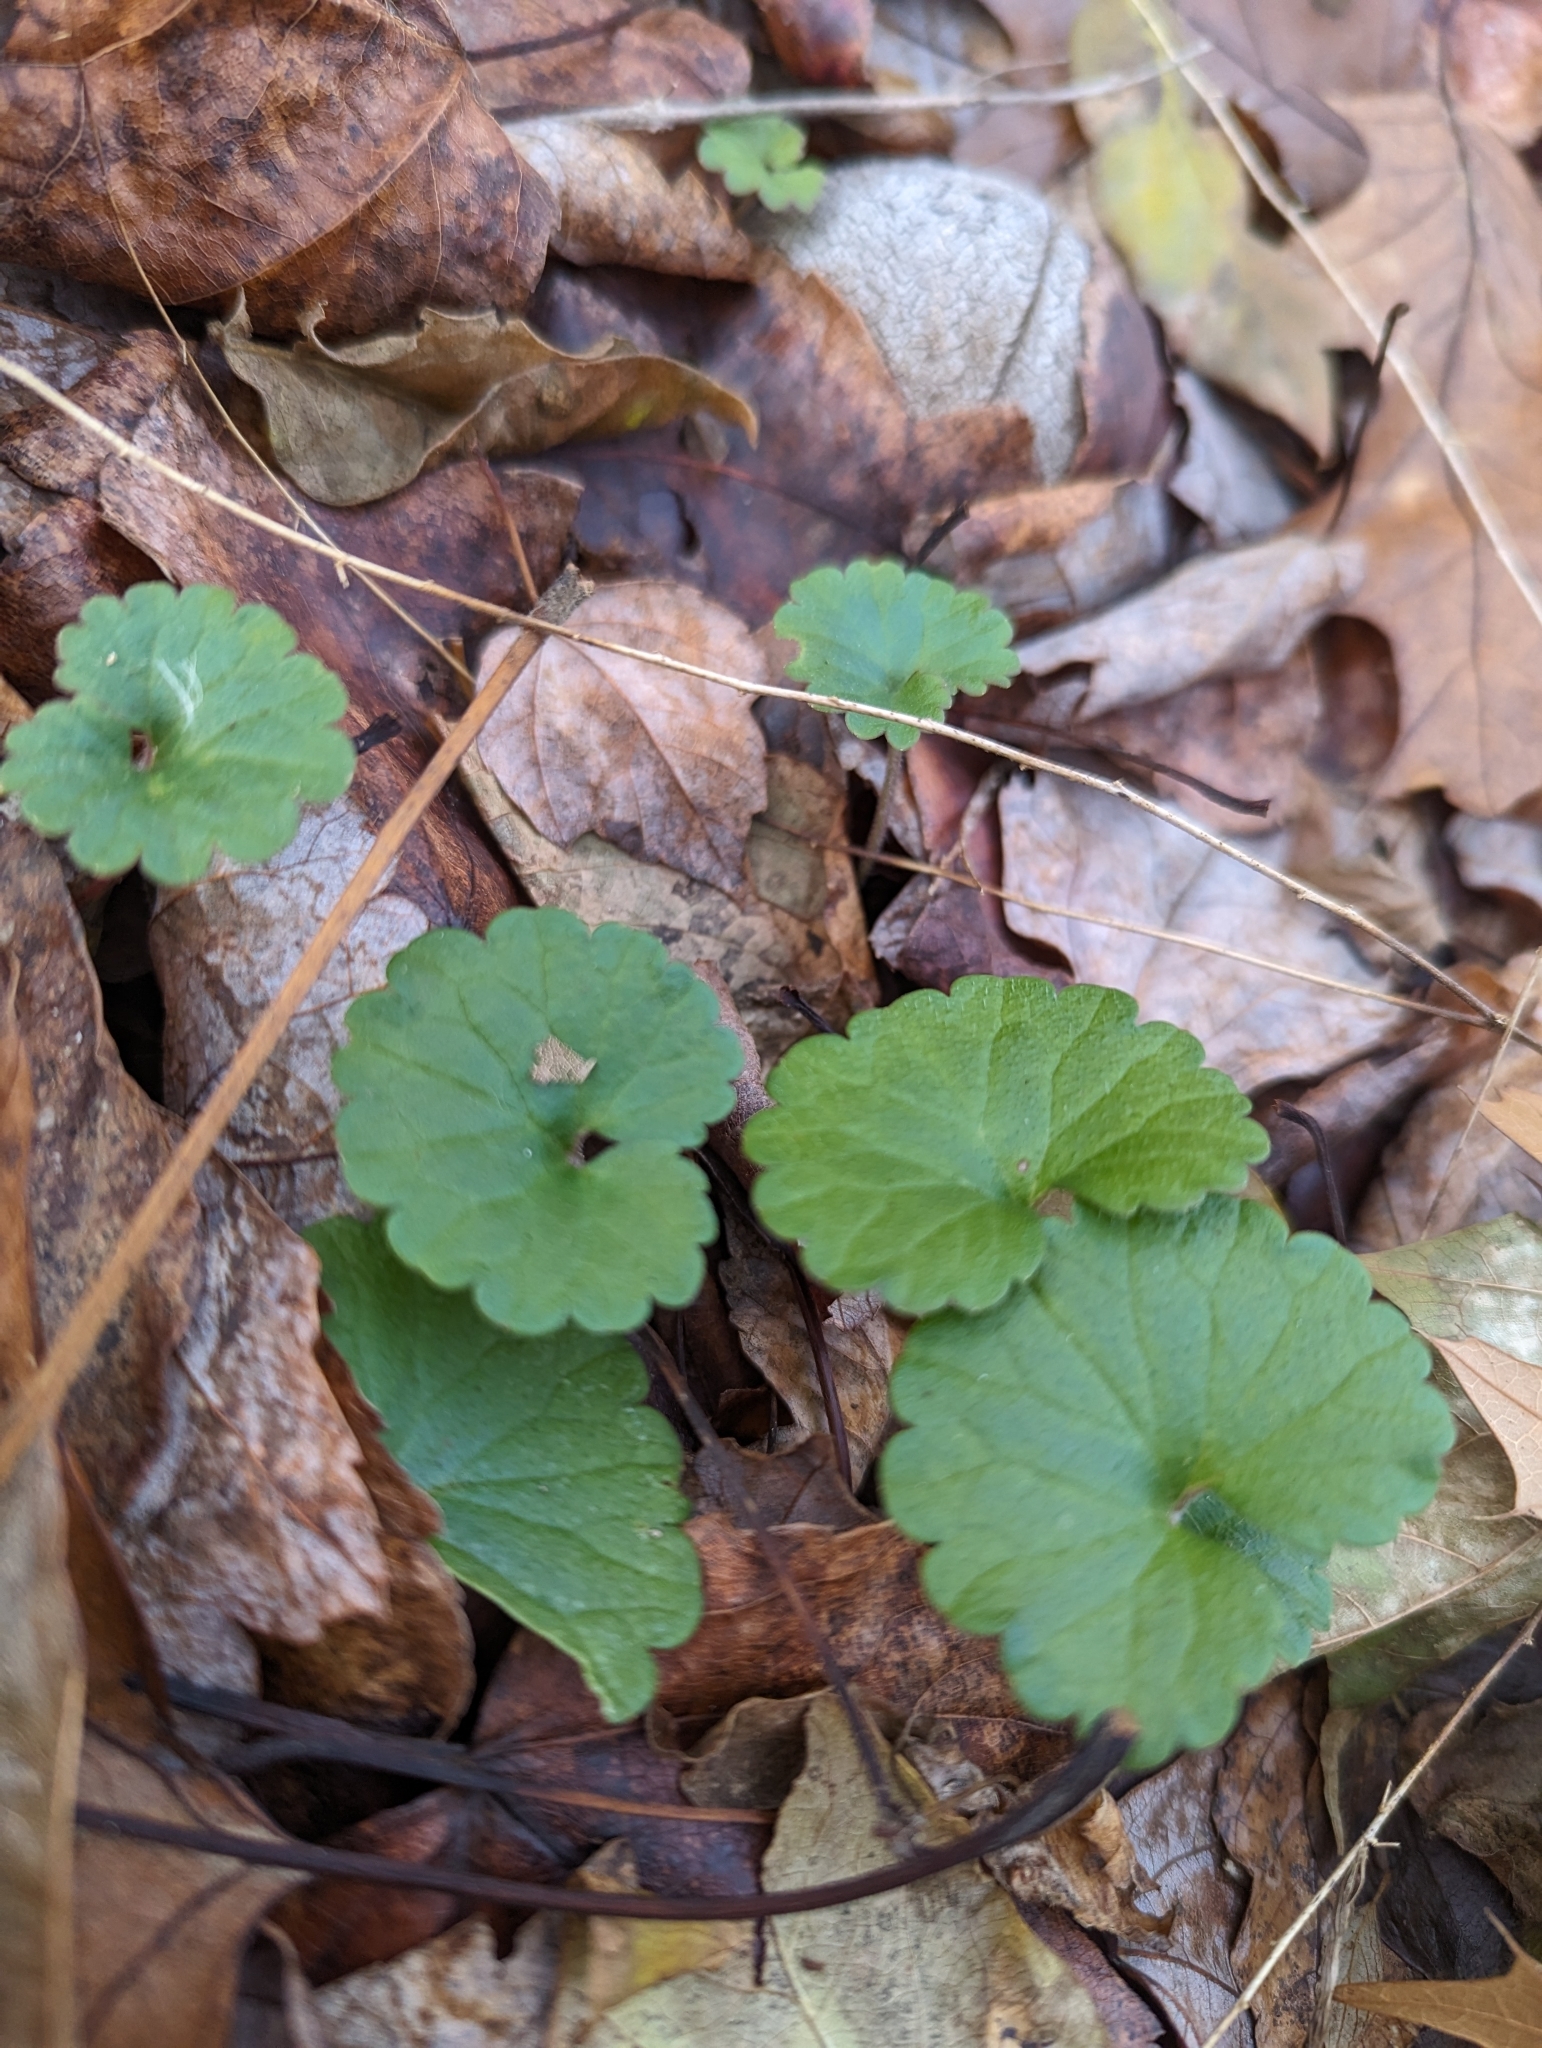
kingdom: Plantae
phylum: Tracheophyta
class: Magnoliopsida
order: Lamiales
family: Lamiaceae
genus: Glechoma
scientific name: Glechoma hederacea
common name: Ground ivy
